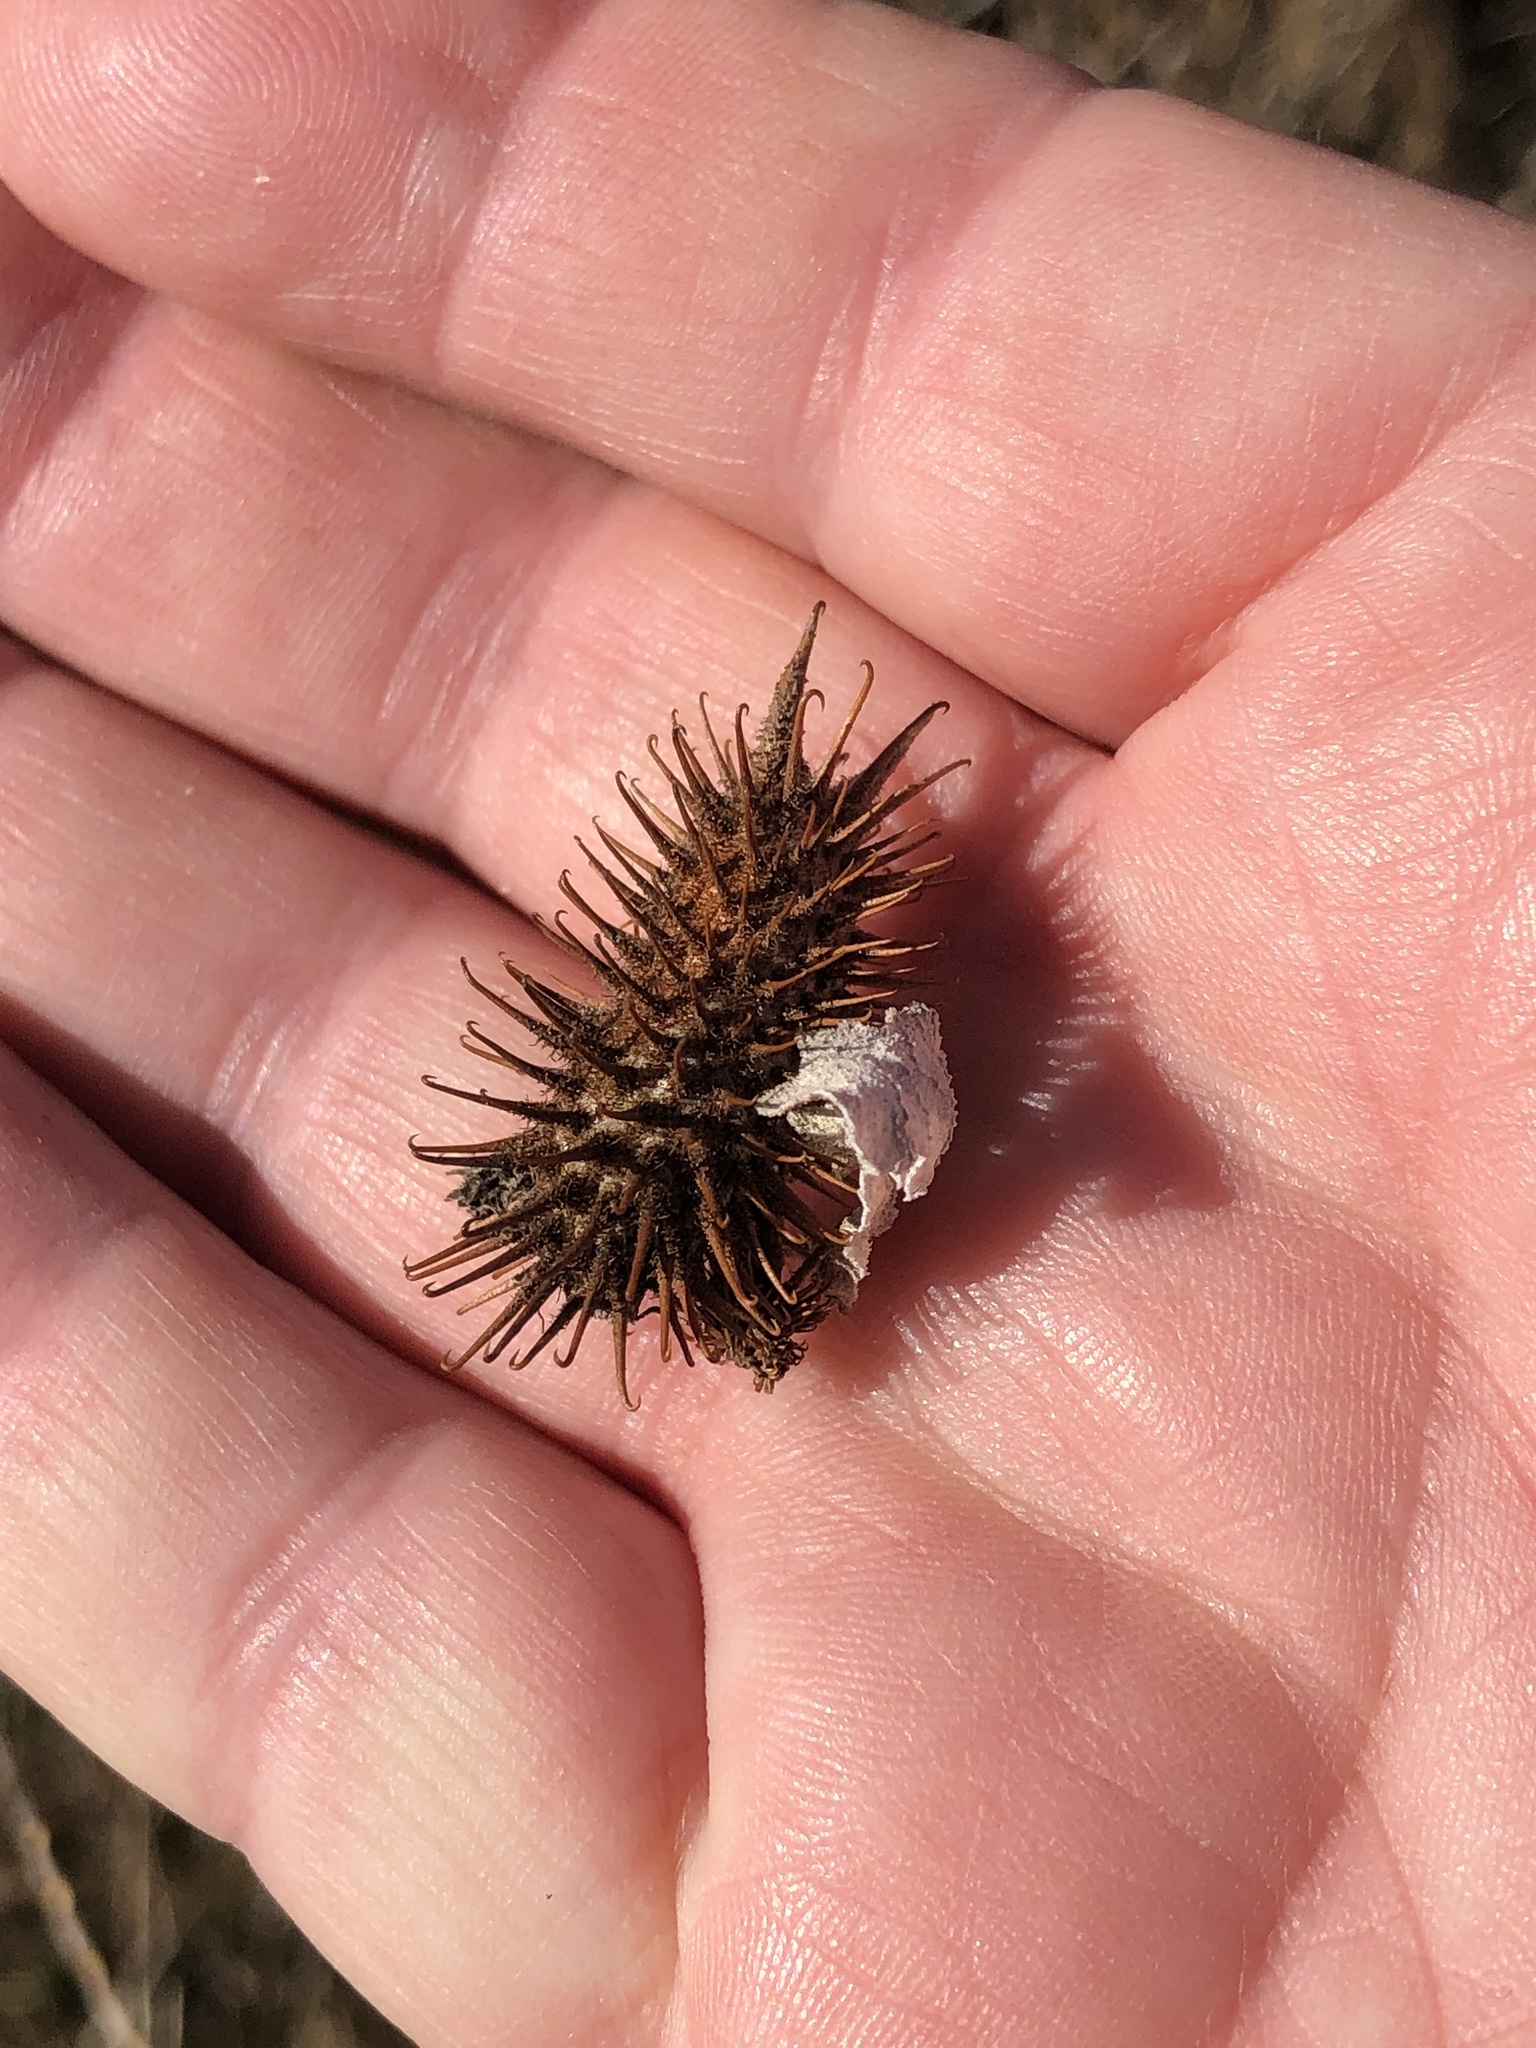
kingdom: Plantae
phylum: Tracheophyta
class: Magnoliopsida
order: Asterales
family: Asteraceae
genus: Xanthium
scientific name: Xanthium strumarium
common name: Rough cocklebur
